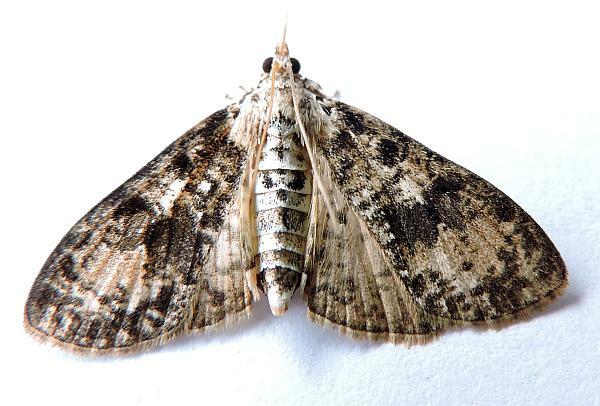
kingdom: Animalia
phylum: Arthropoda
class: Insecta
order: Lepidoptera
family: Crambidae
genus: Palpita
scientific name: Palpita magniferalis
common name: Splendid palpita moth
